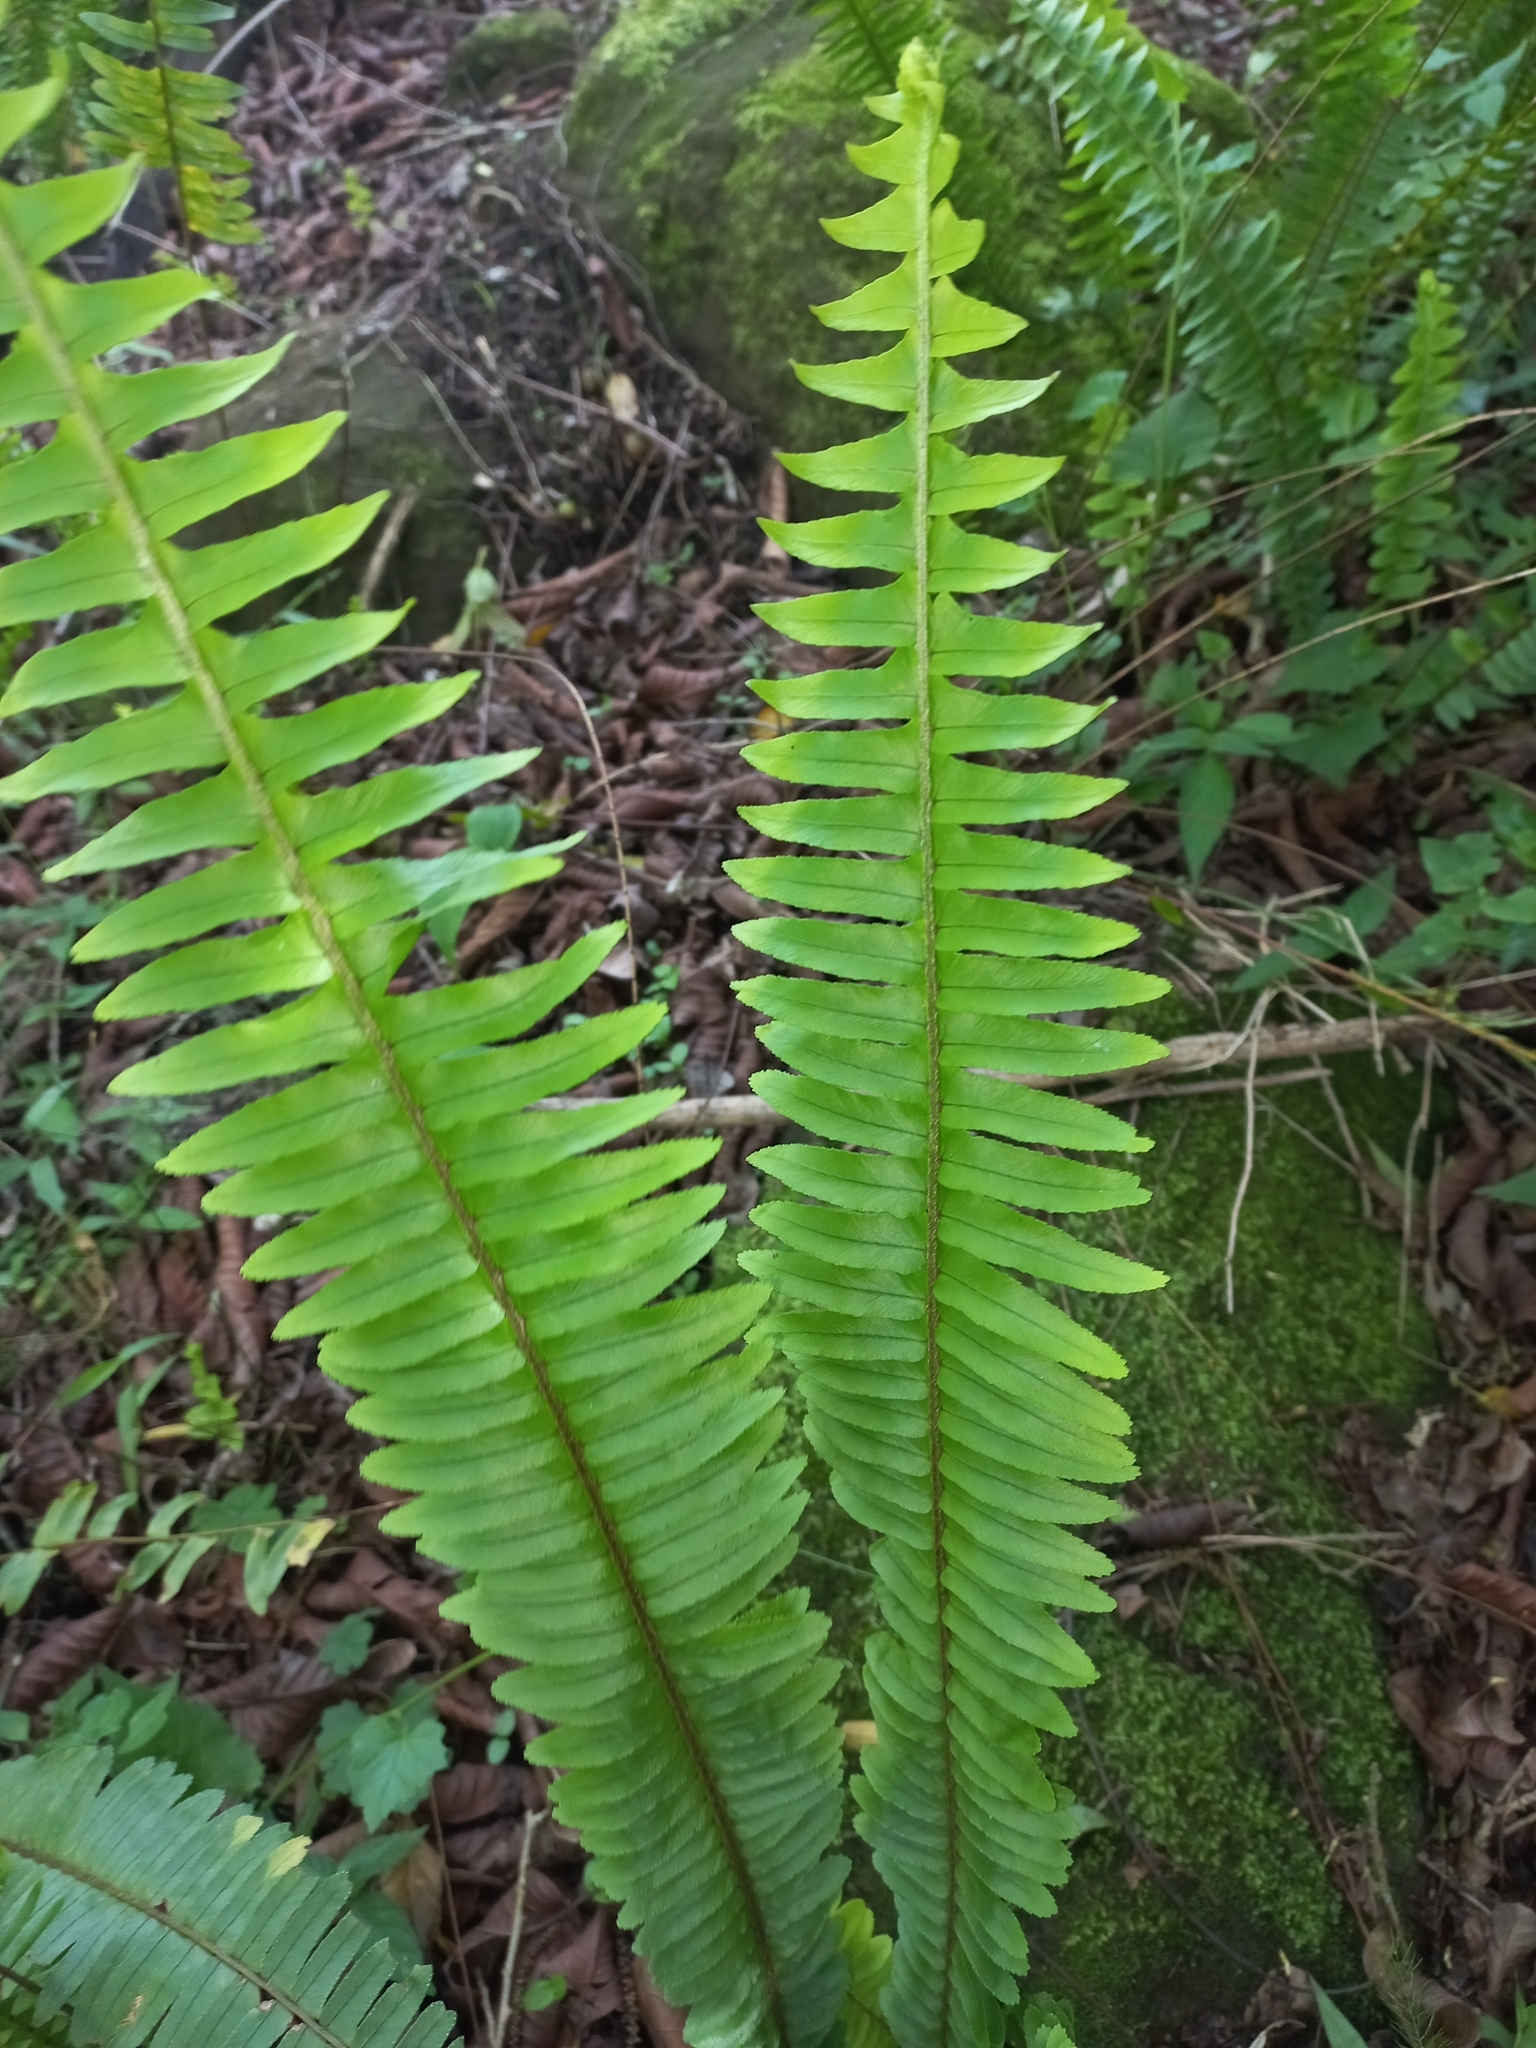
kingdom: Plantae
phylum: Tracheophyta
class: Polypodiopsida
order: Polypodiales
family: Nephrolepidaceae
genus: Nephrolepis
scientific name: Nephrolepis cordifolia
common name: Narrow swordfern
